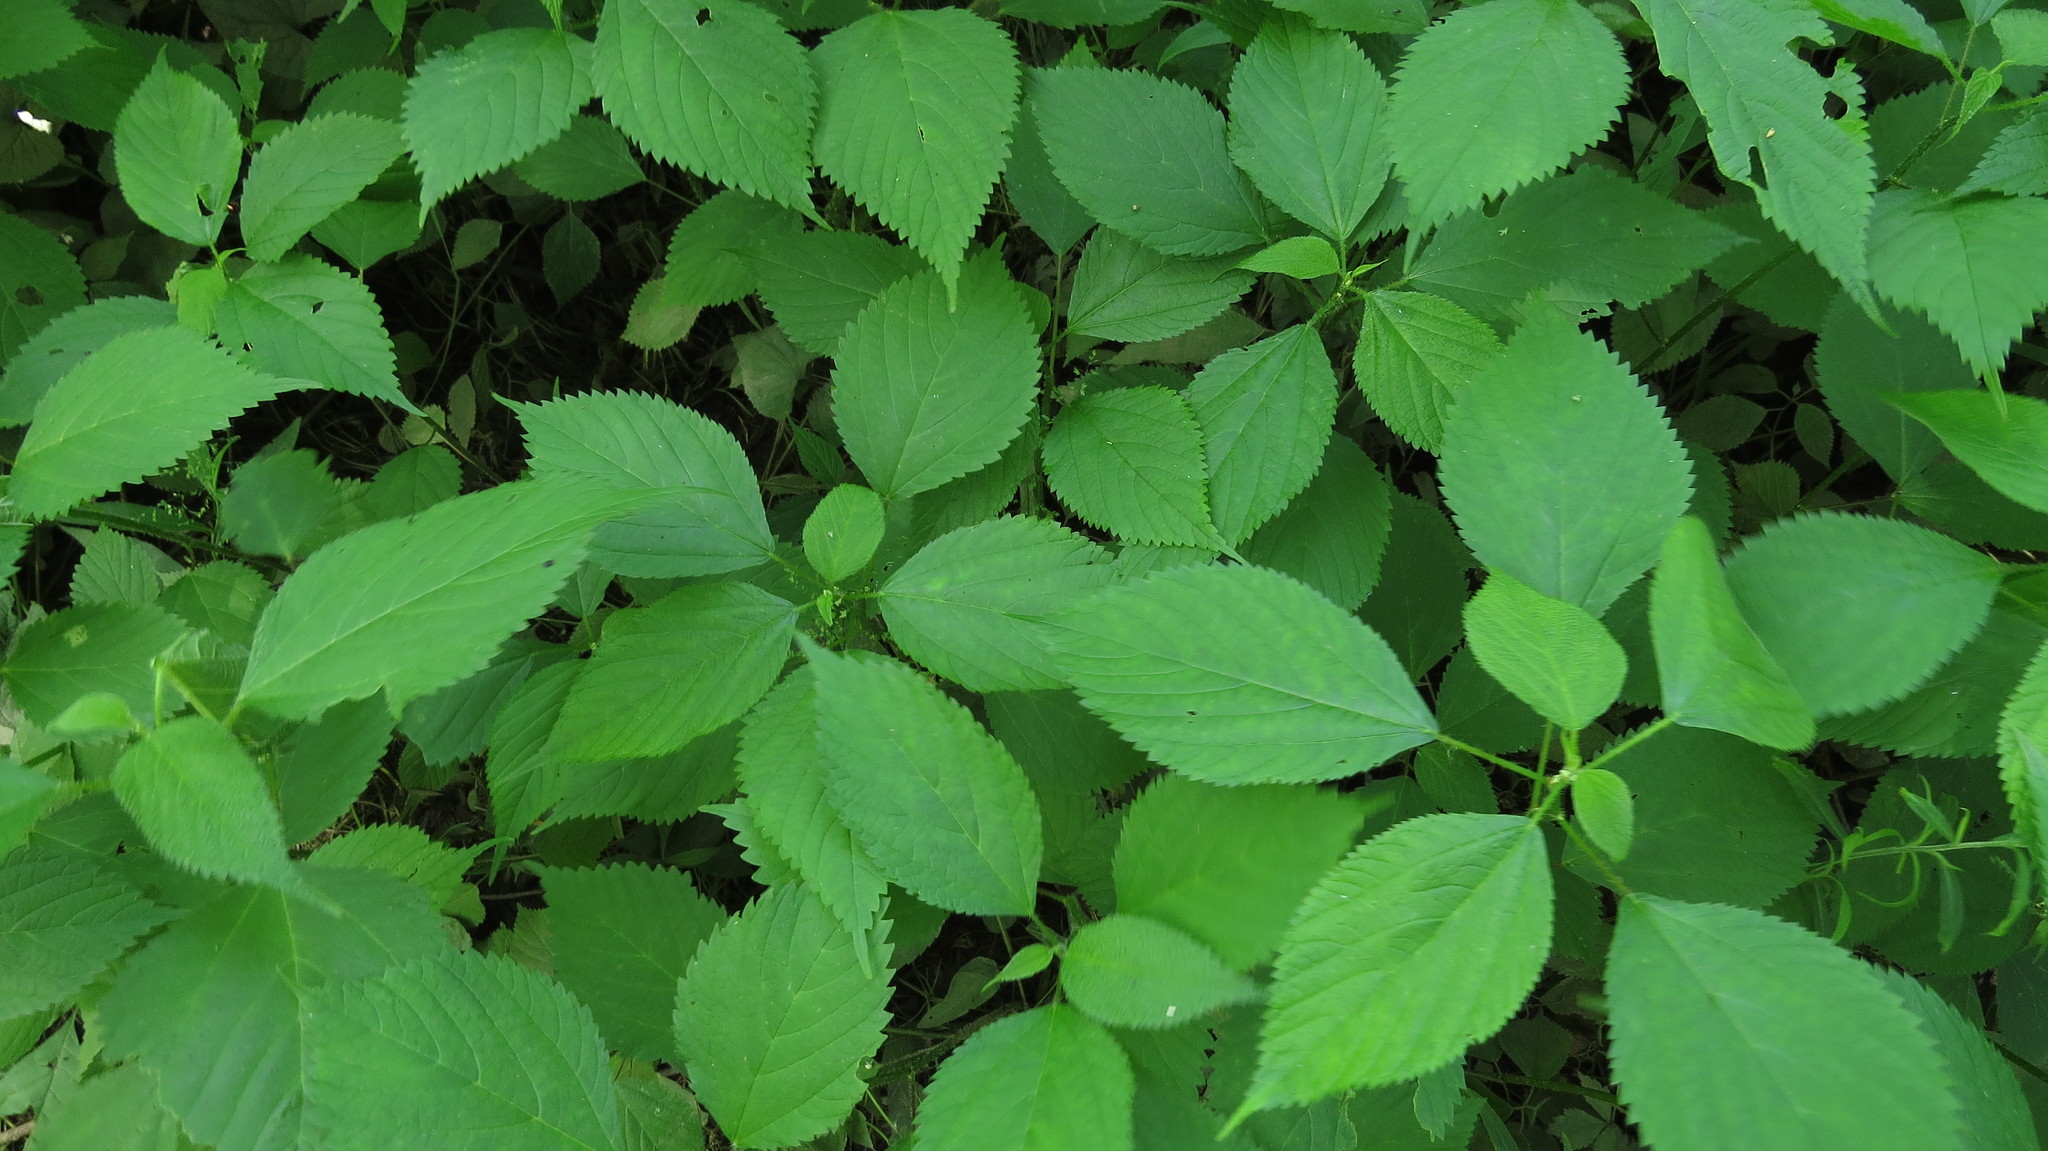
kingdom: Plantae
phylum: Tracheophyta
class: Magnoliopsida
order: Rosales
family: Urticaceae
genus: Laportea
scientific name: Laportea canadensis
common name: Canada nettle
